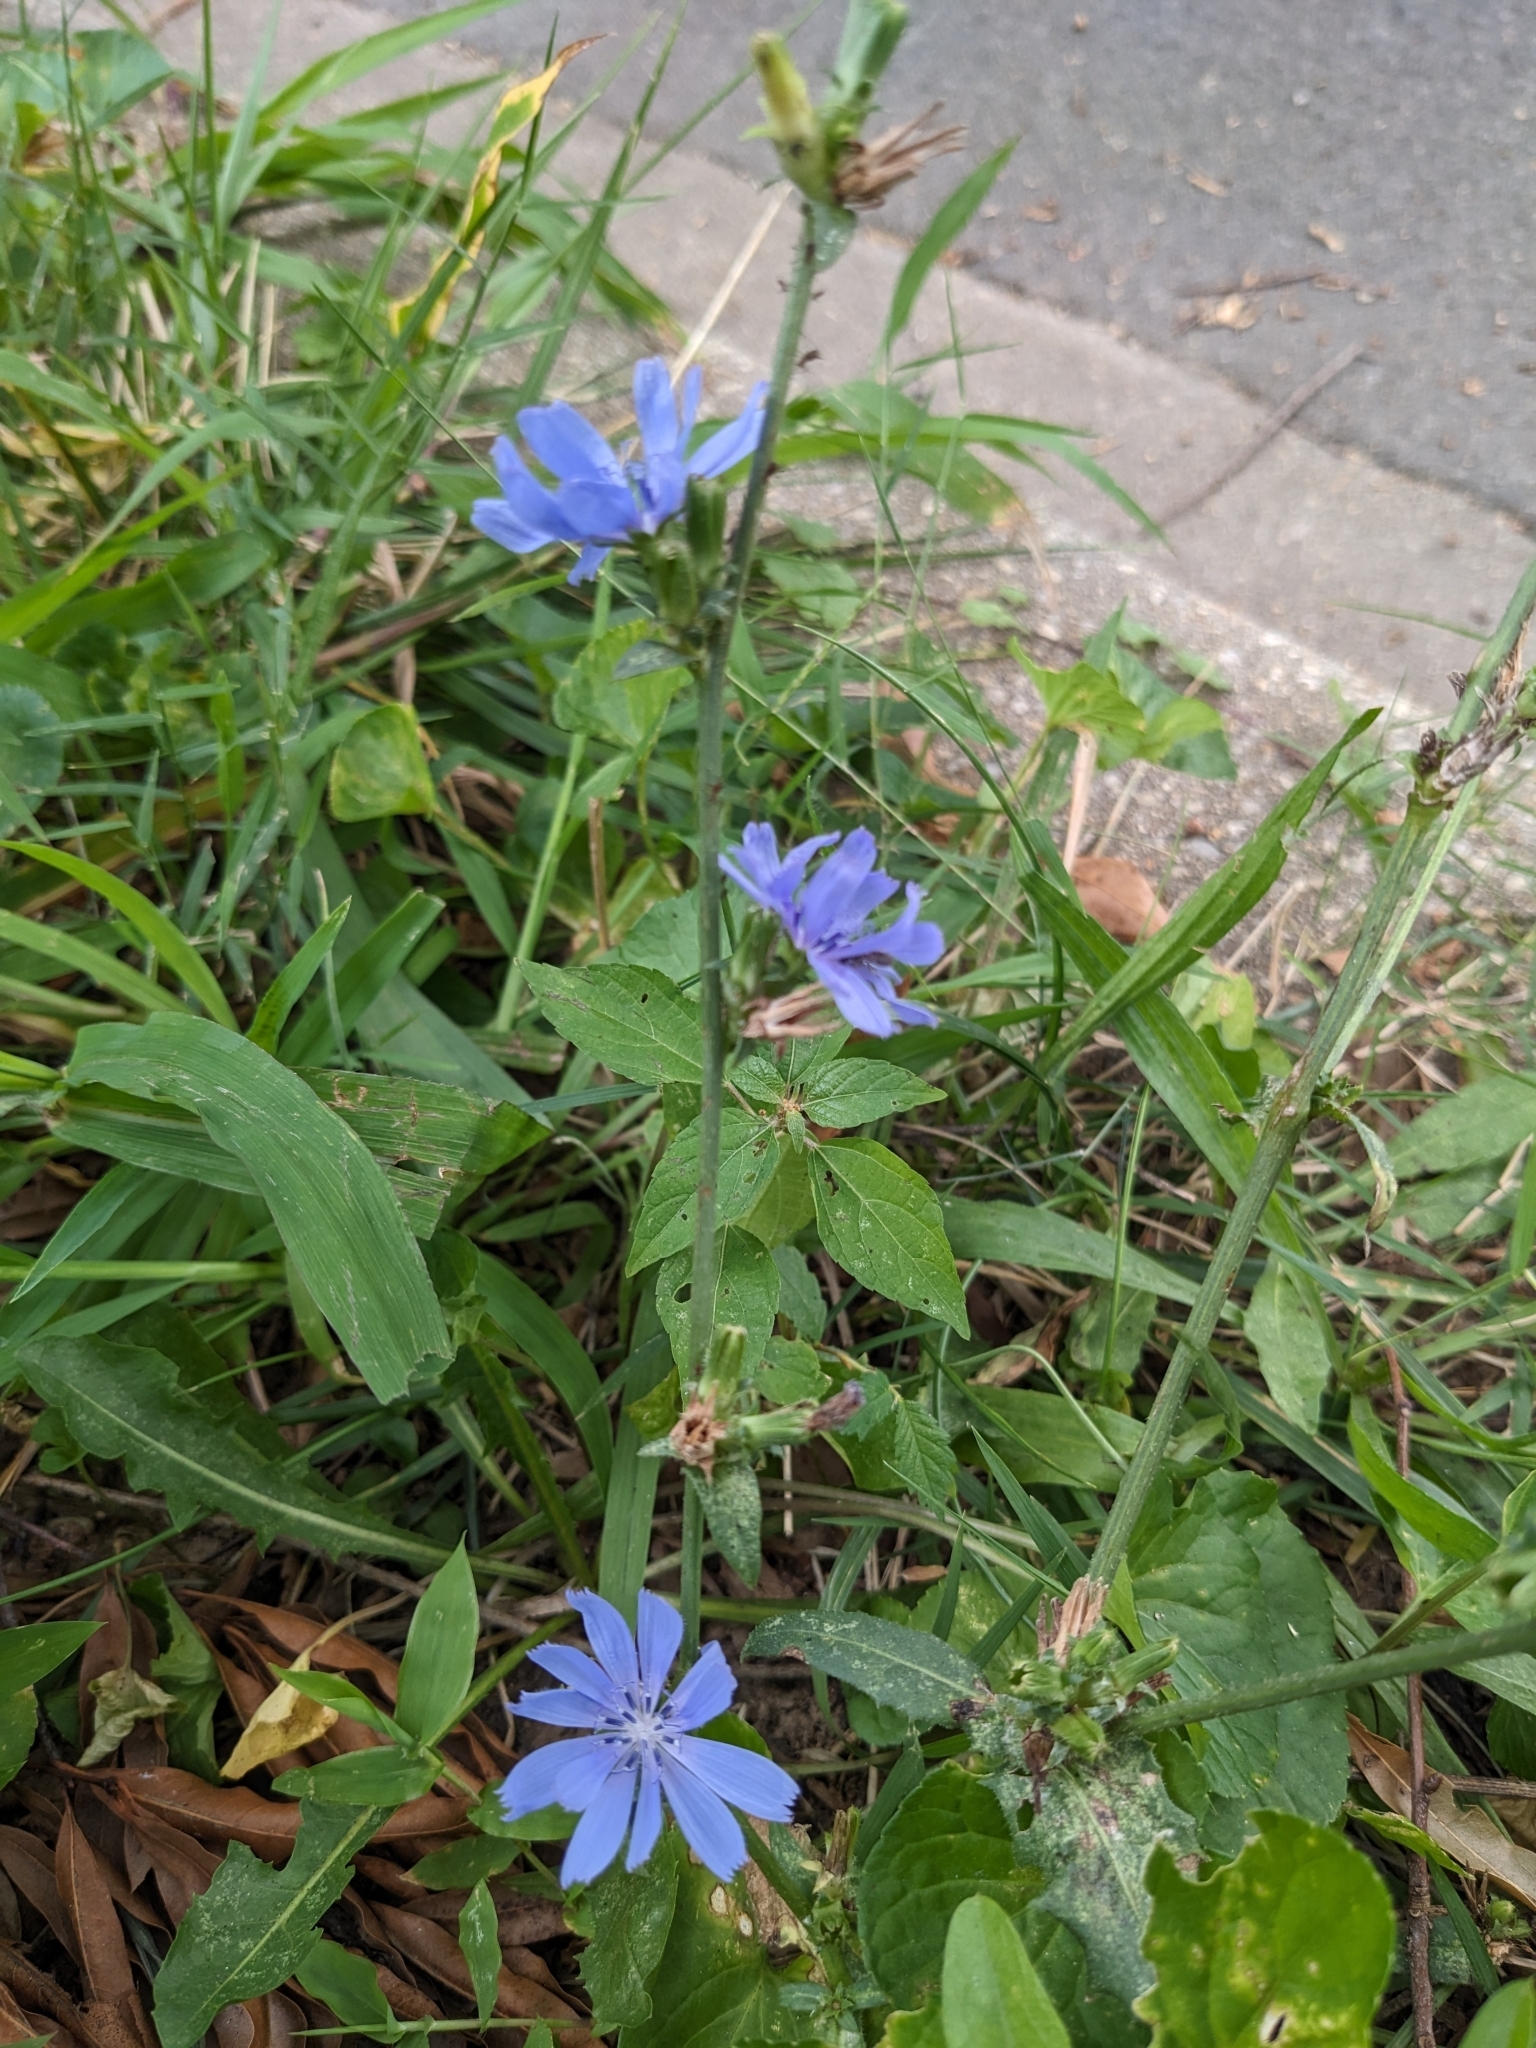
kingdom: Plantae
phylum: Tracheophyta
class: Magnoliopsida
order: Asterales
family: Asteraceae
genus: Cichorium
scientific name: Cichorium intybus
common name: Chicory
